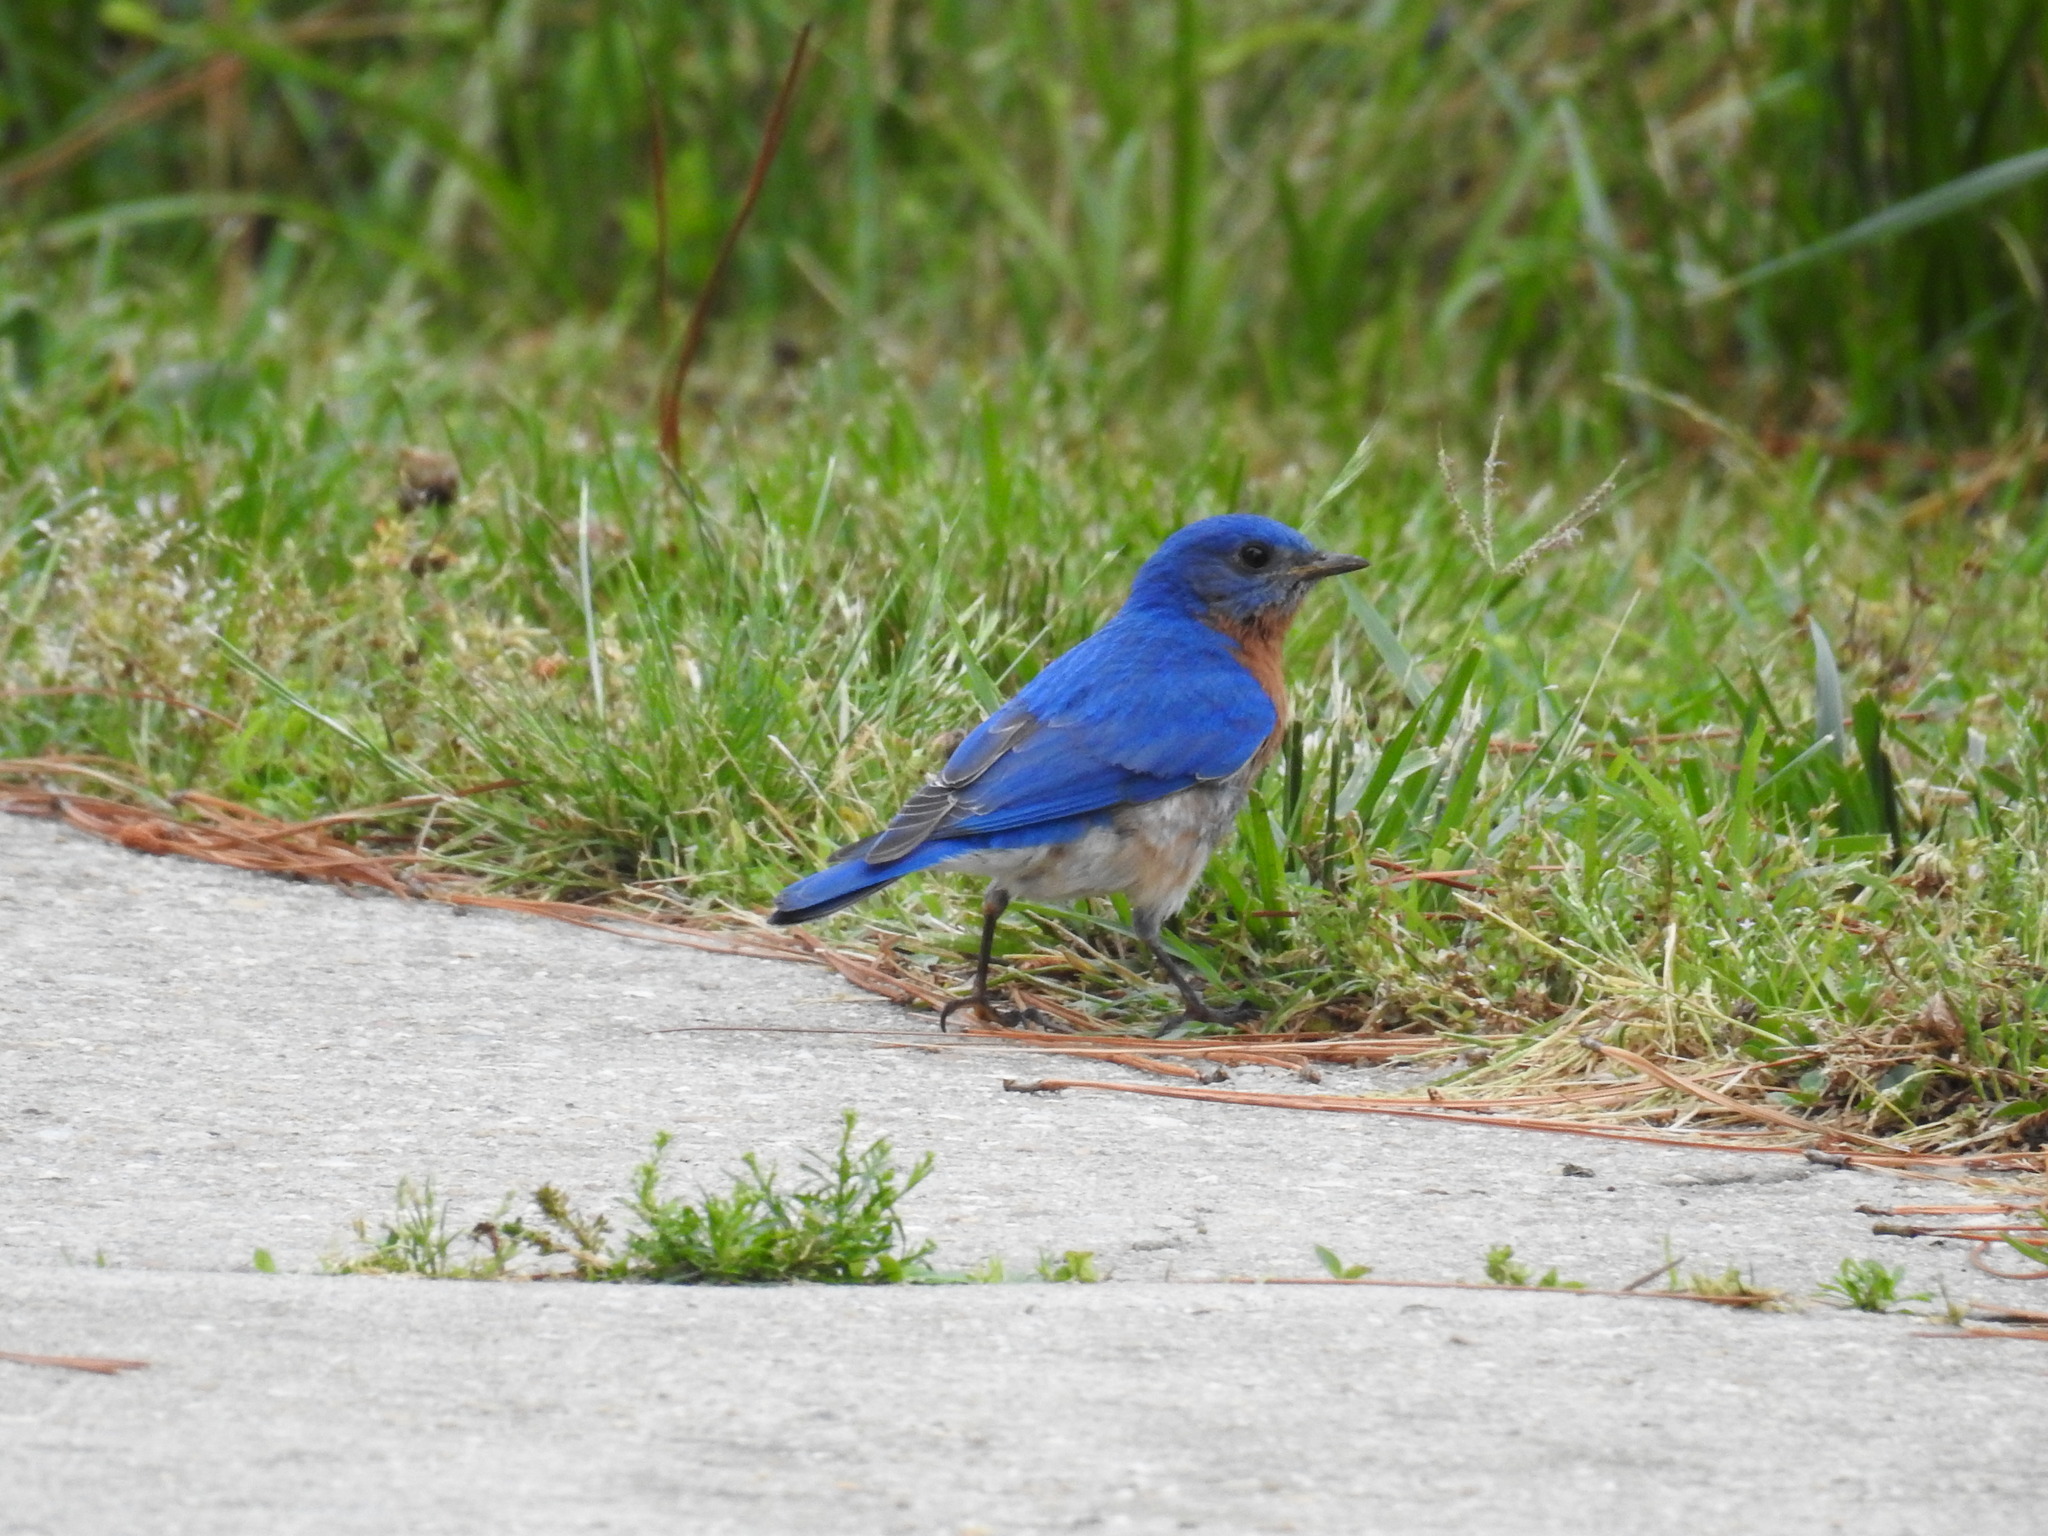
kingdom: Animalia
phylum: Chordata
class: Aves
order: Passeriformes
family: Turdidae
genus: Sialia
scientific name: Sialia sialis
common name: Eastern bluebird
